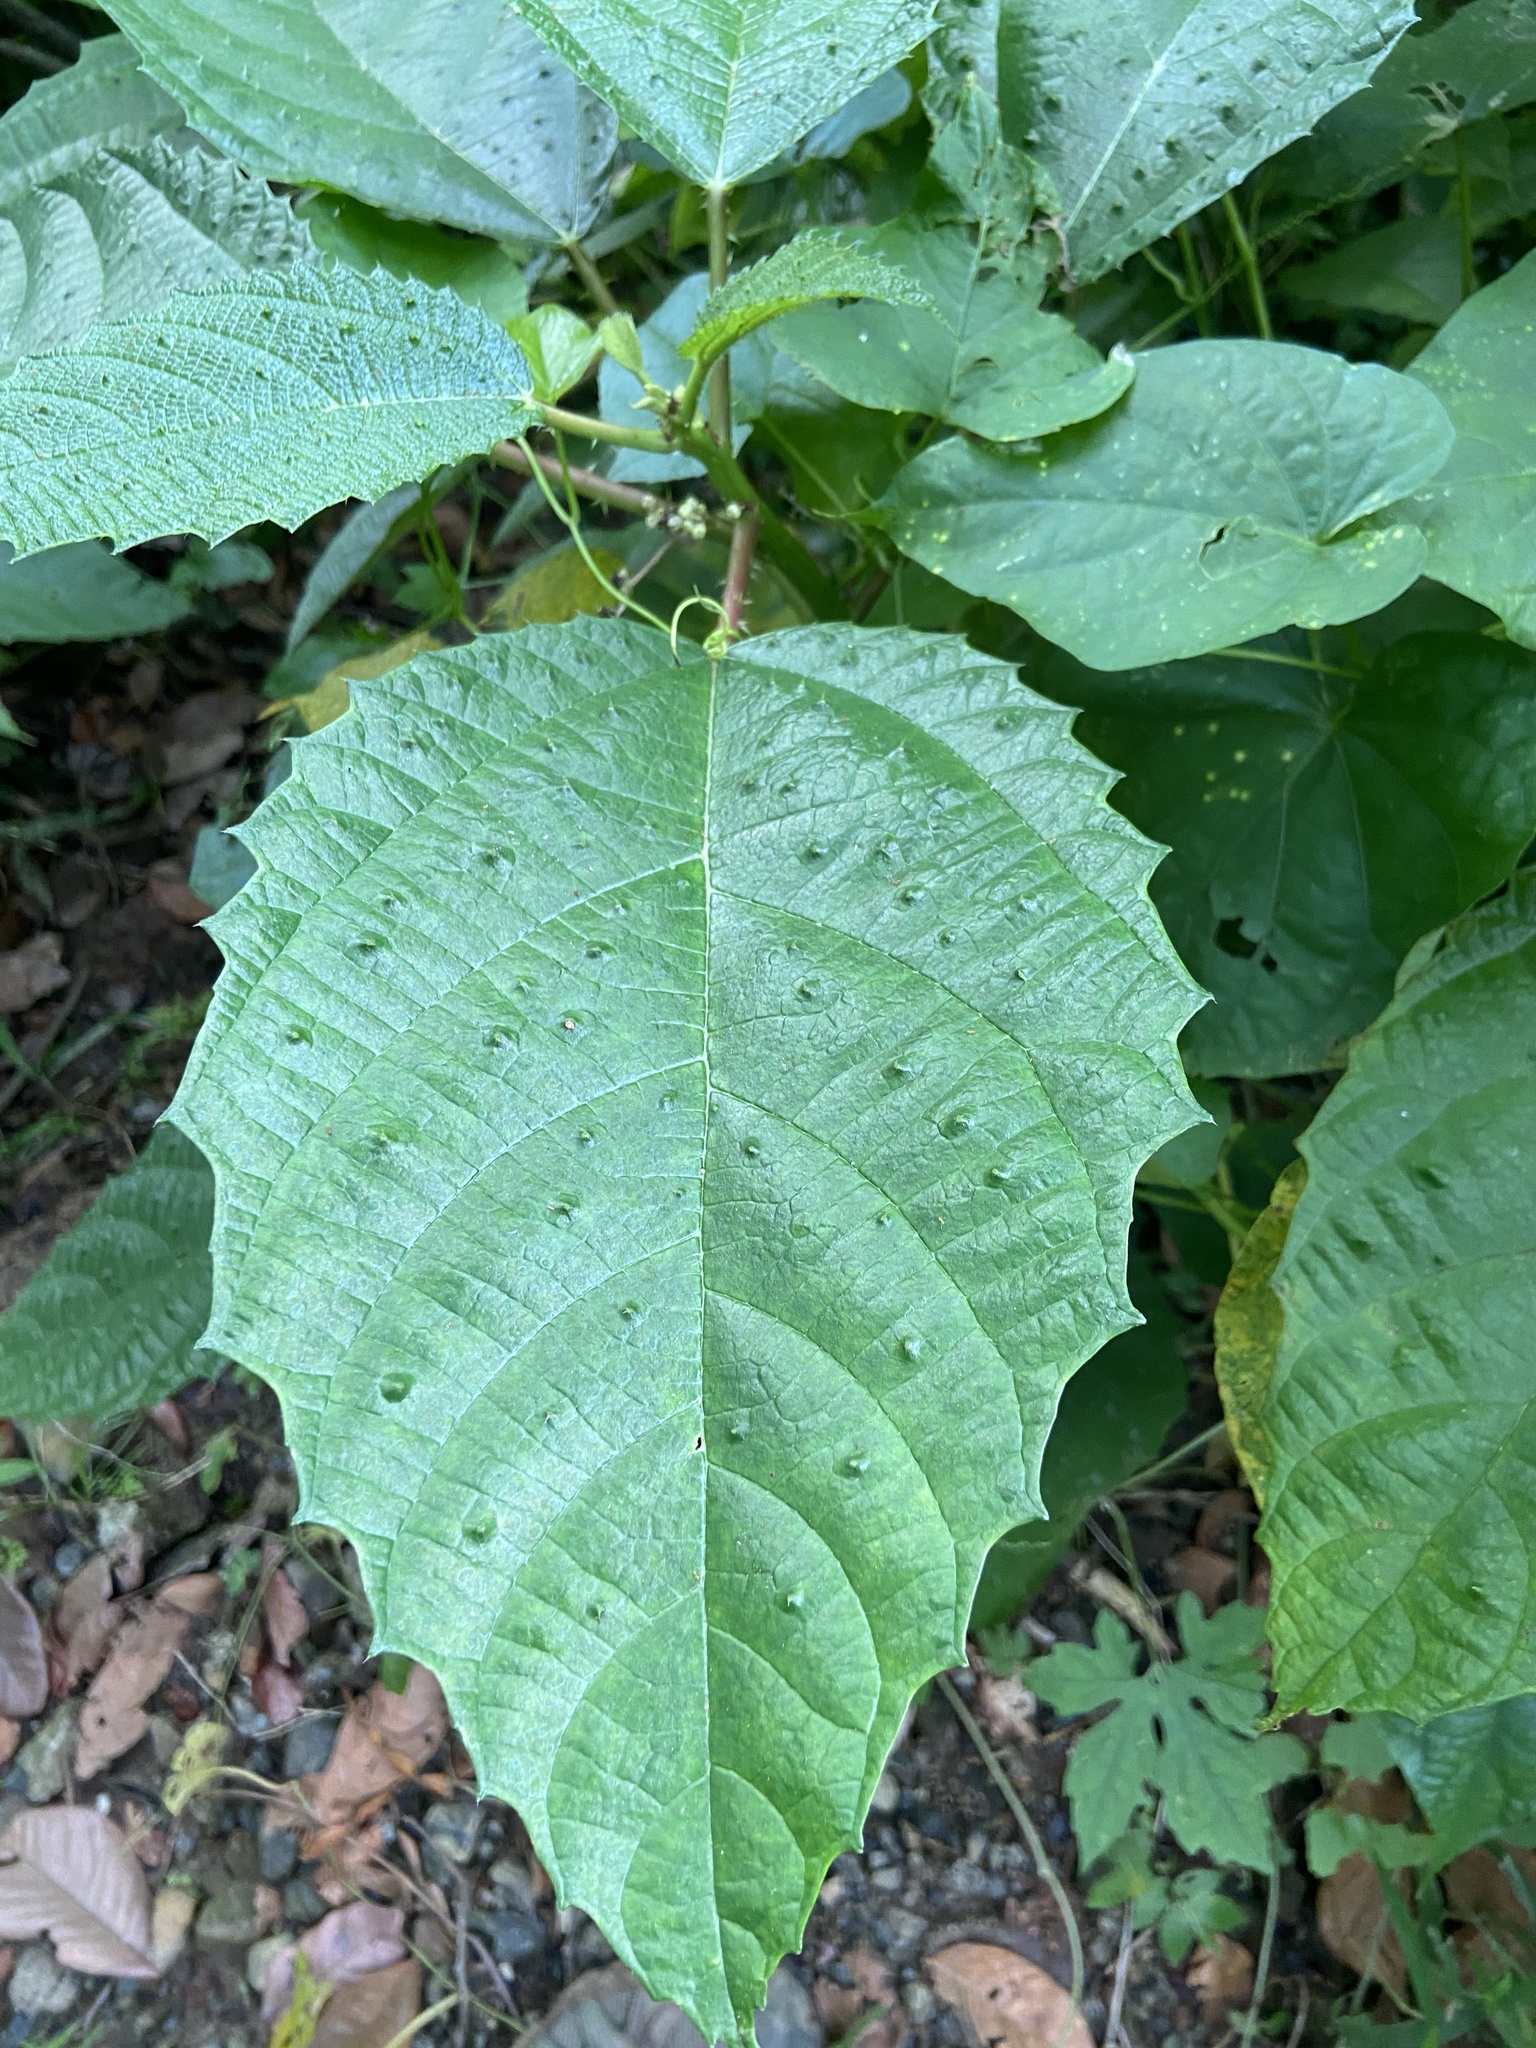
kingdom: Plantae
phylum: Tracheophyta
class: Magnoliopsida
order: Rosales
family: Urticaceae
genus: Urera
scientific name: Urera baccifera
